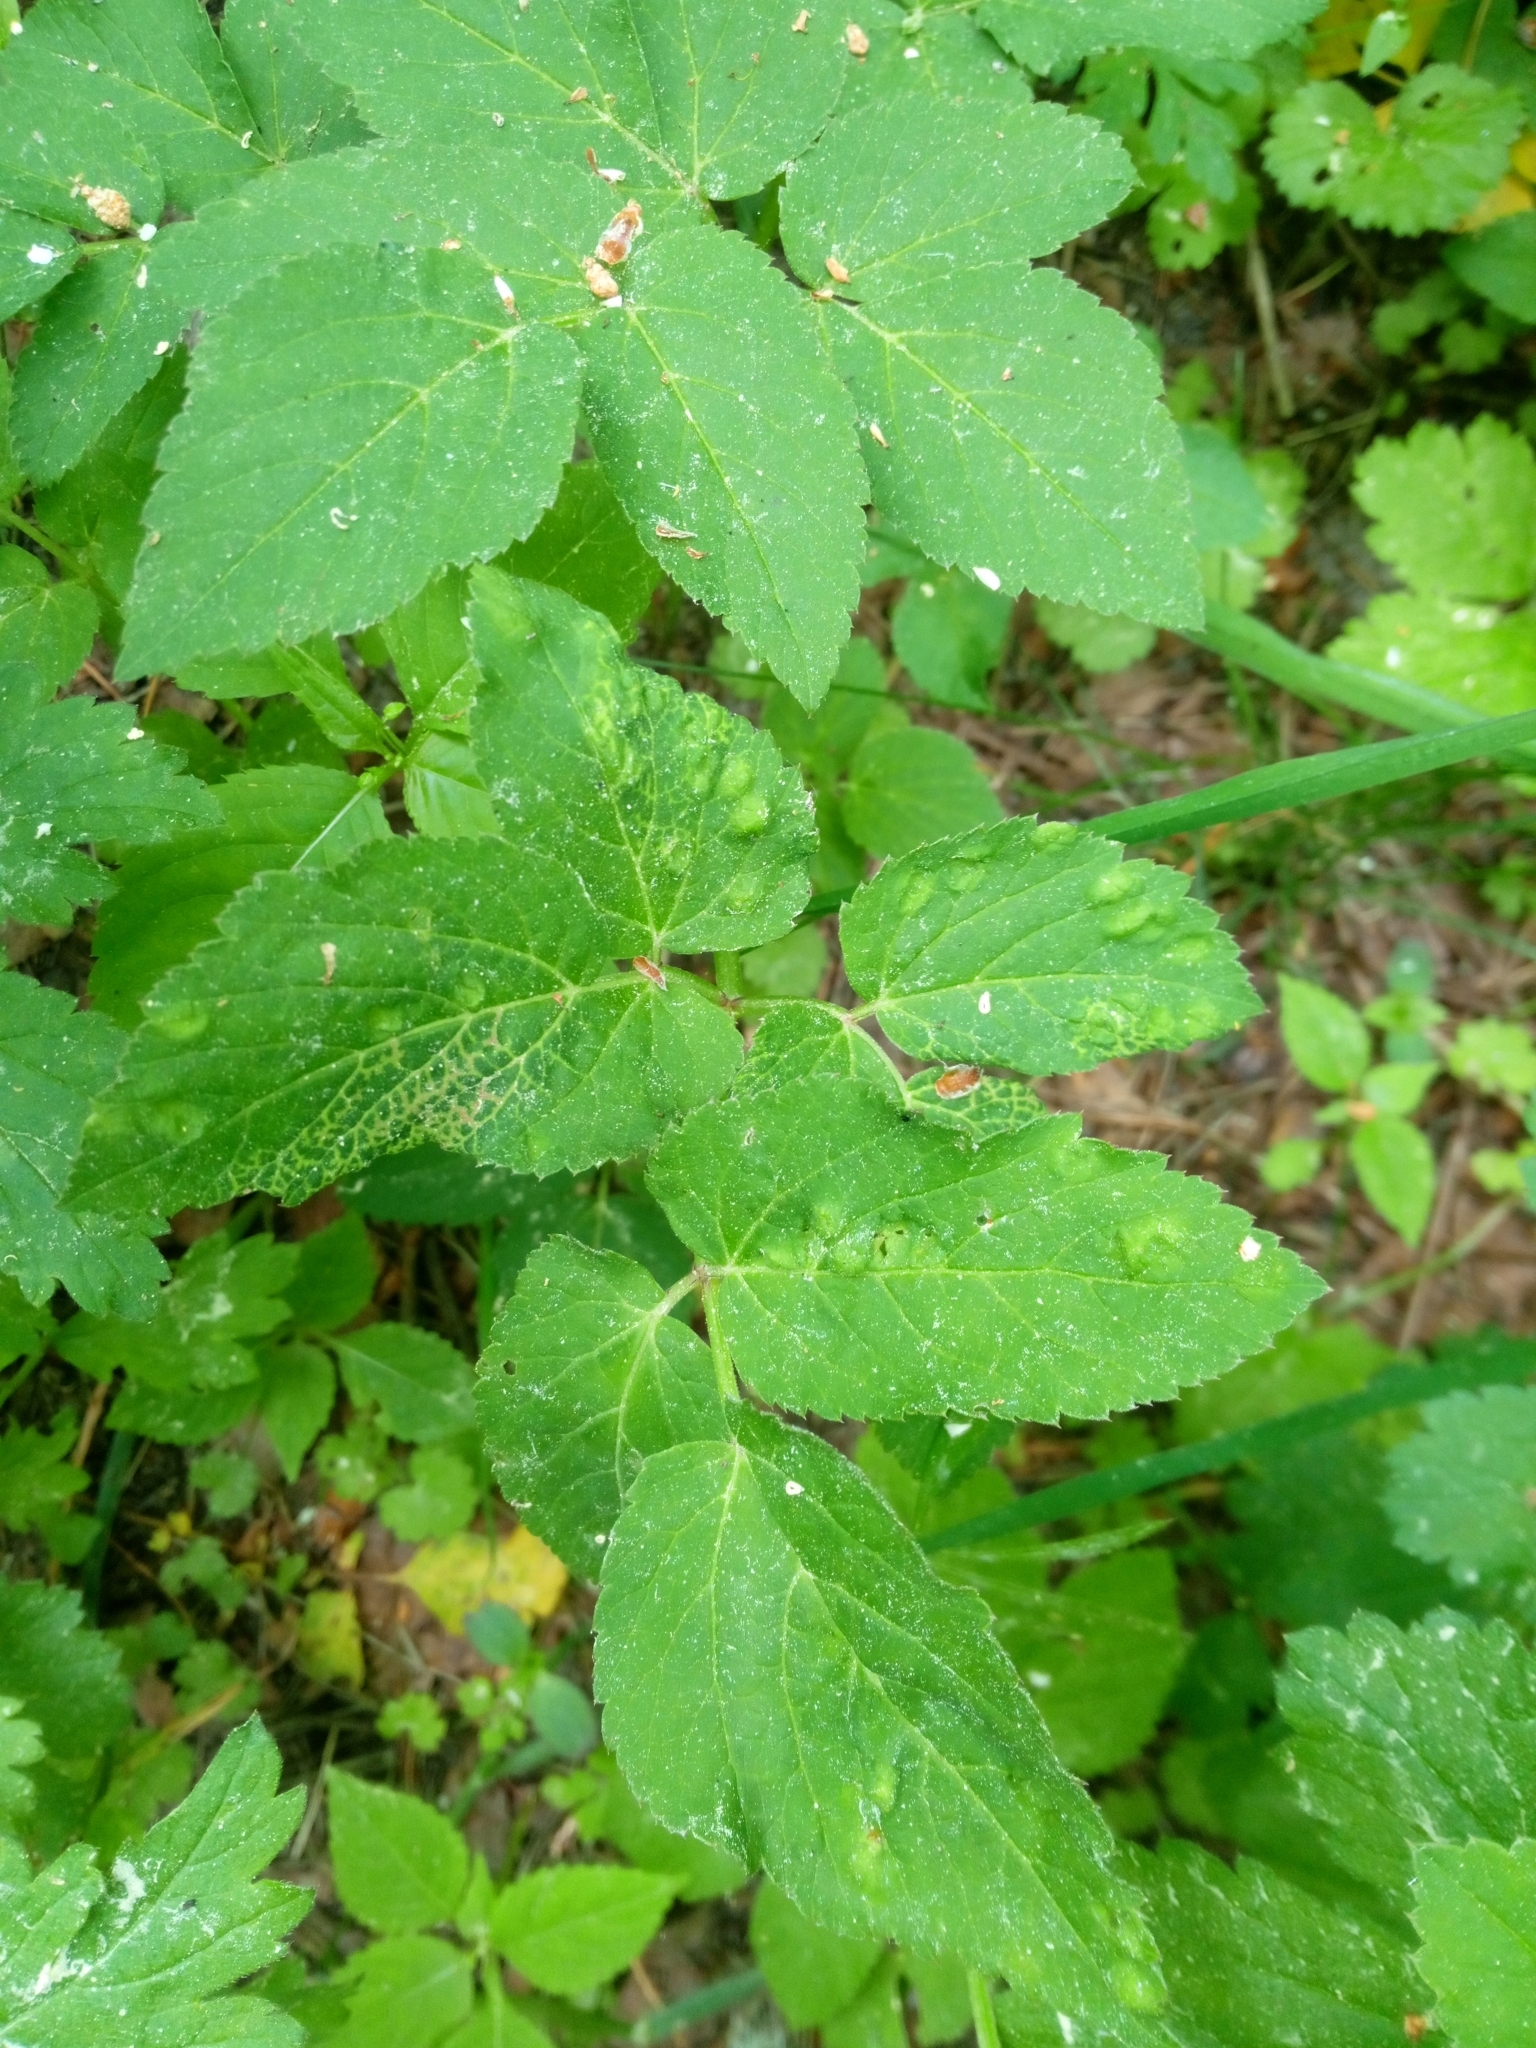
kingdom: Plantae
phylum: Tracheophyta
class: Magnoliopsida
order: Apiales
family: Apiaceae
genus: Aegopodium
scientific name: Aegopodium podagraria
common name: Ground-elder
